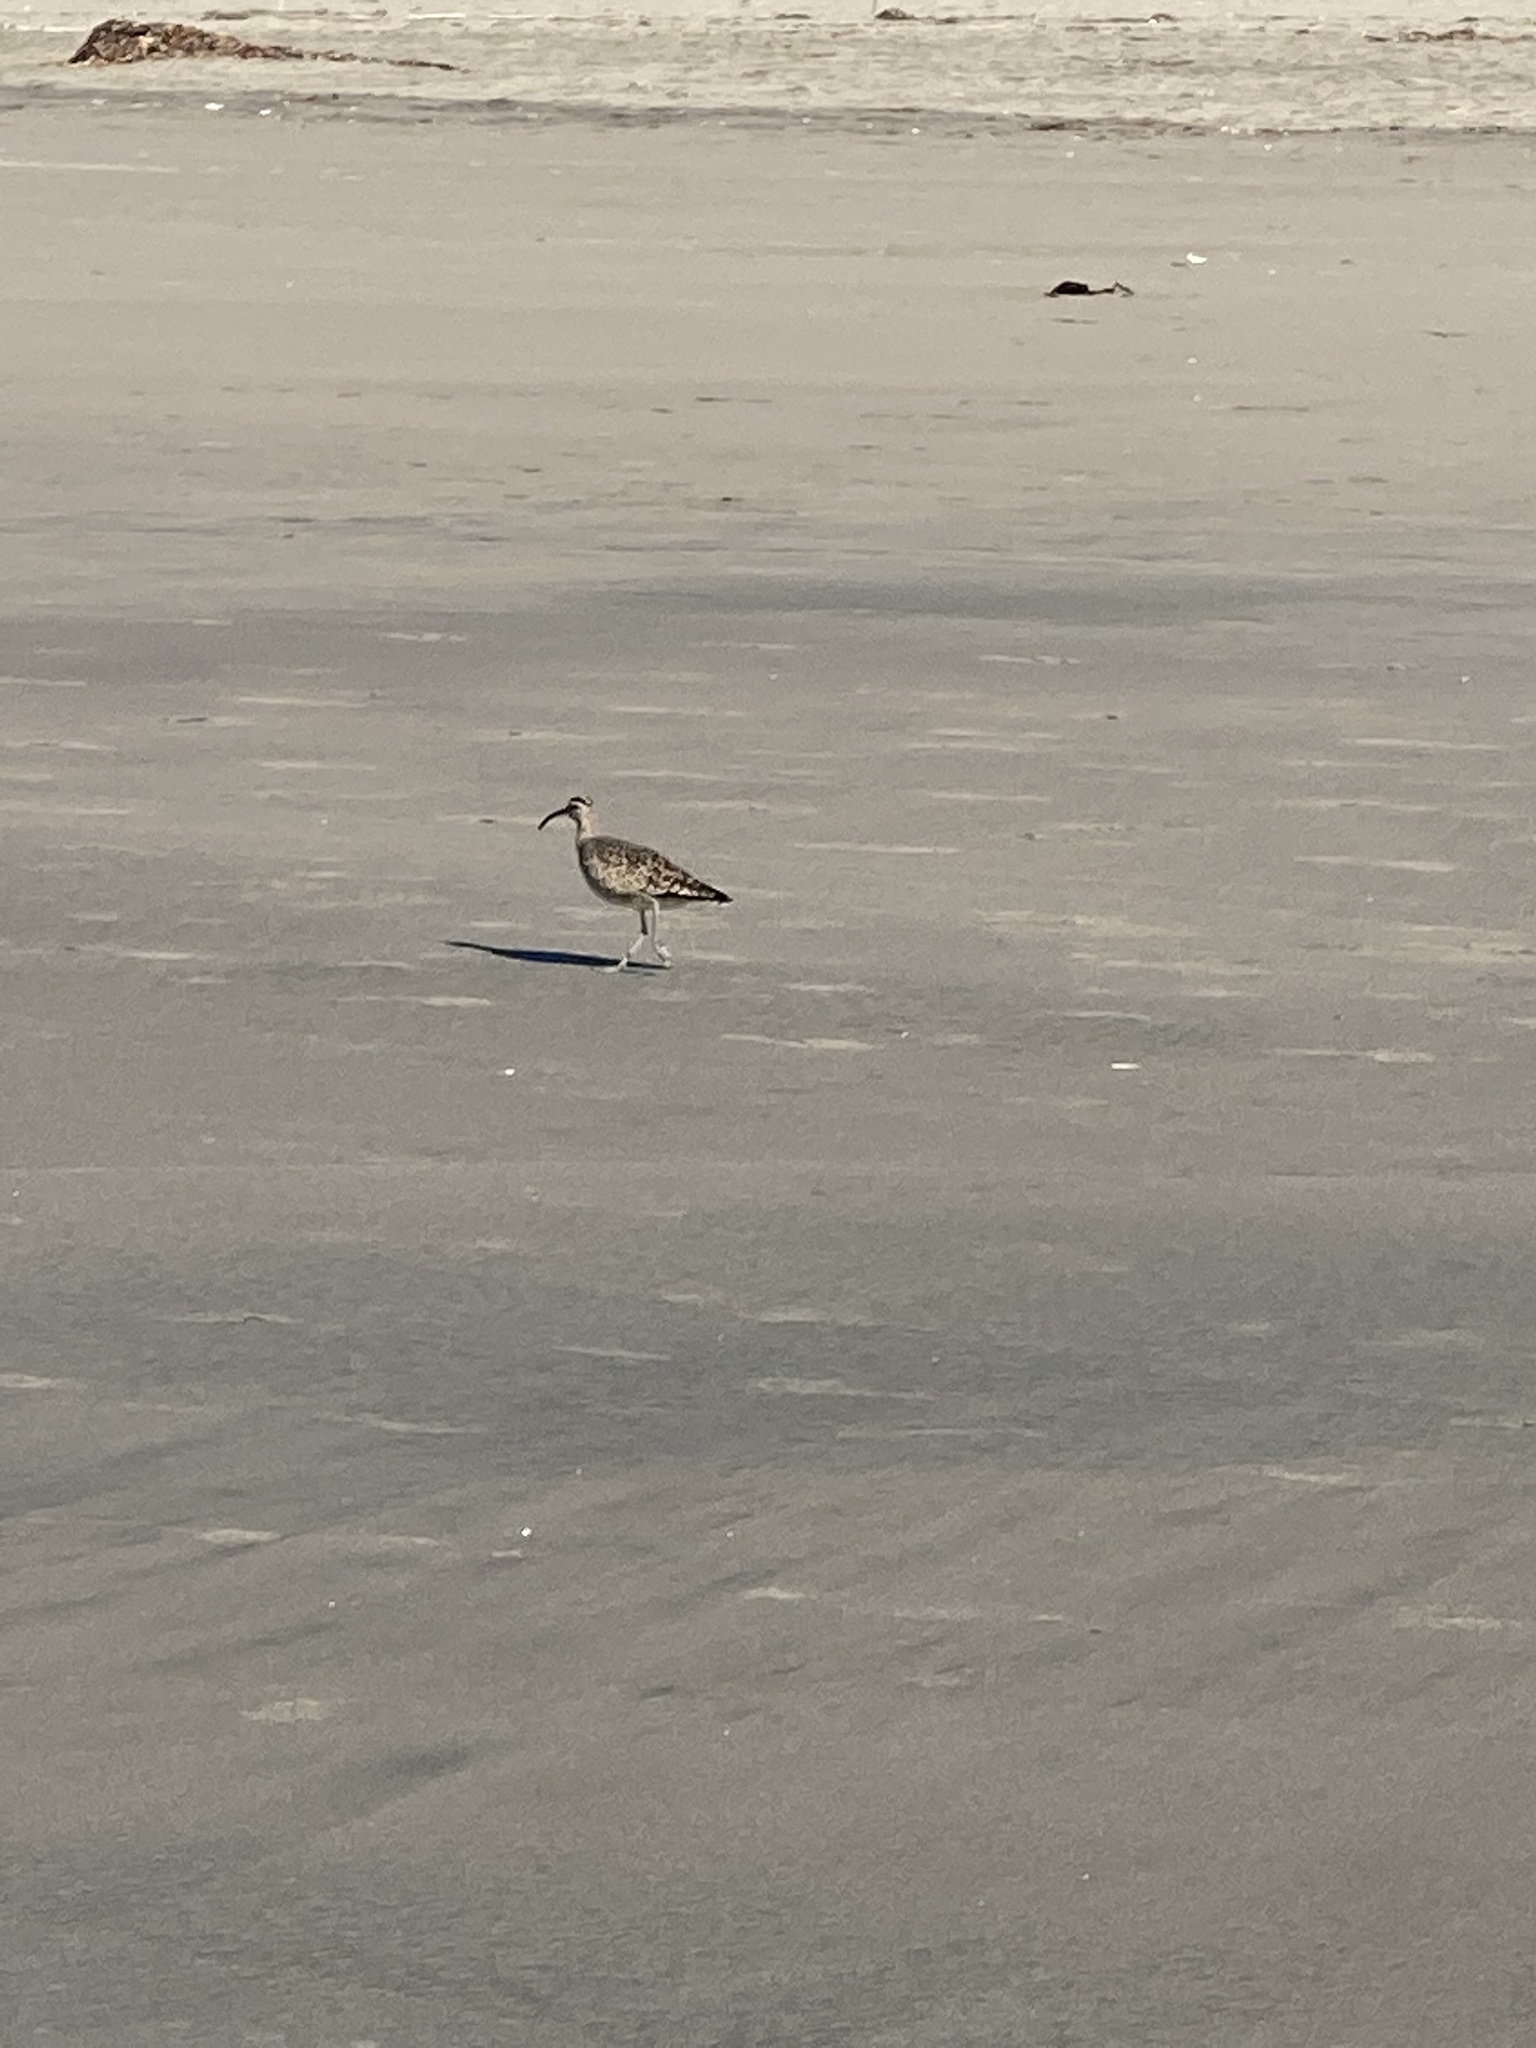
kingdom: Animalia
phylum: Chordata
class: Aves
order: Charadriiformes
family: Scolopacidae
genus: Numenius
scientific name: Numenius phaeopus
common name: Whimbrel
